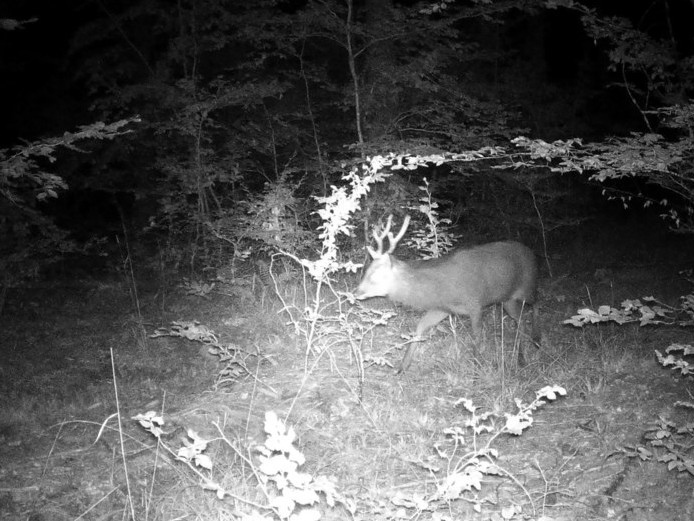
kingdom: Animalia
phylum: Chordata
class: Mammalia
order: Artiodactyla
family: Cervidae
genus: Dama
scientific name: Dama dama
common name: Fallow deer
